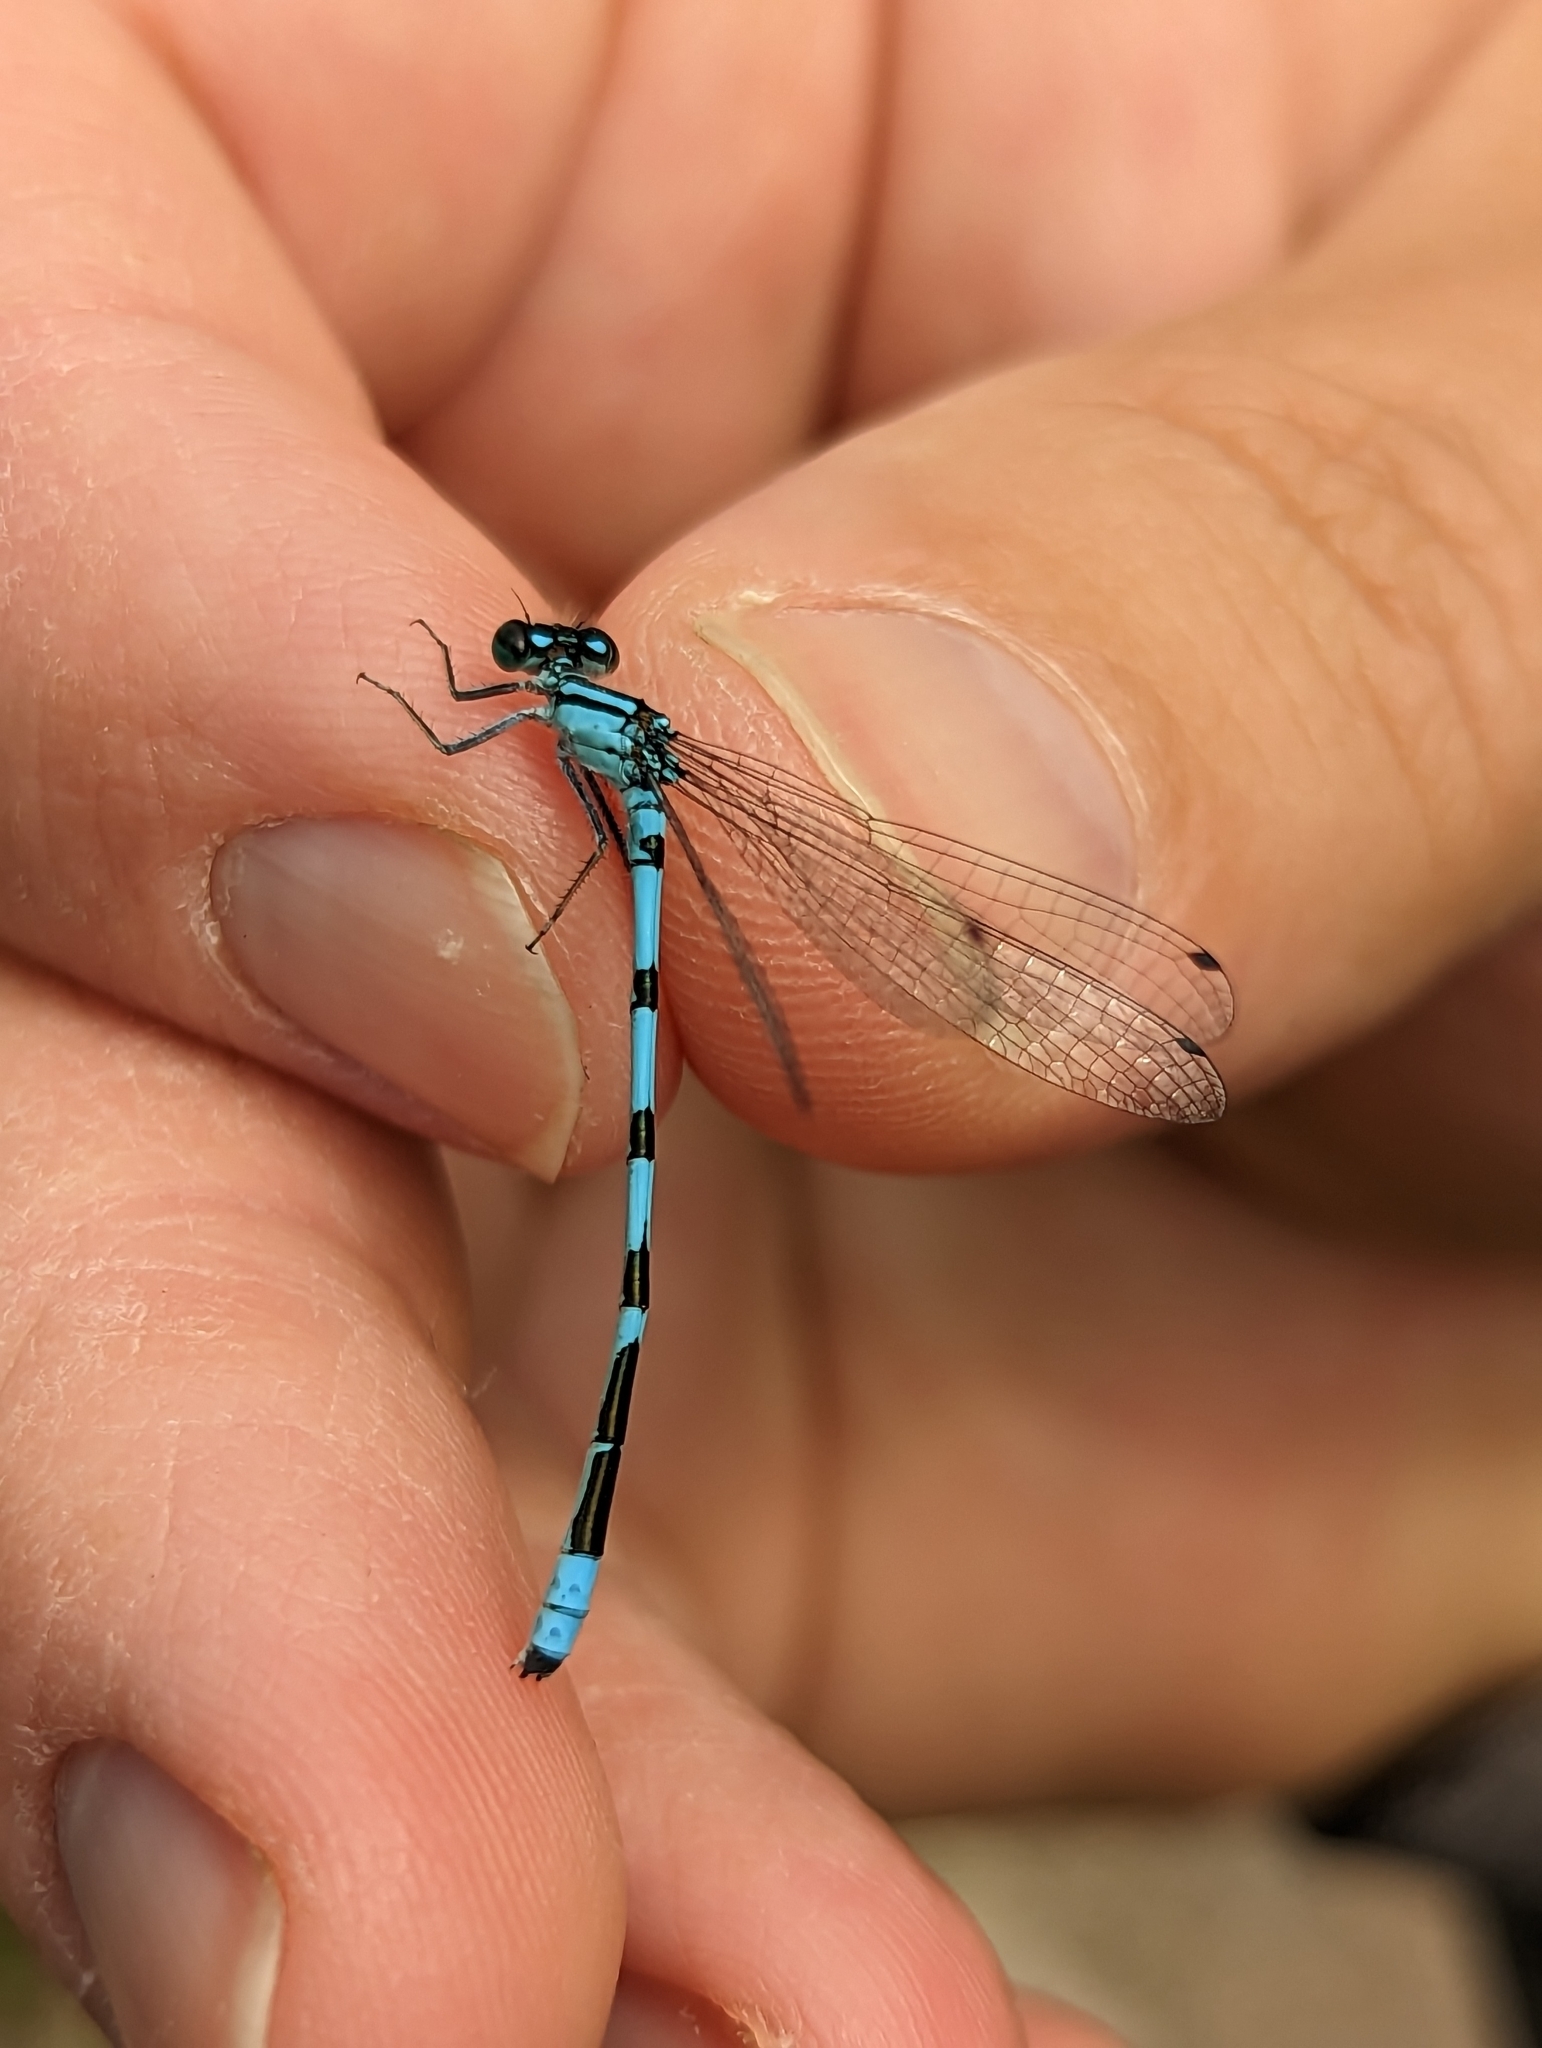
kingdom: Animalia
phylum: Arthropoda
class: Insecta
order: Odonata
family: Coenagrionidae
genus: Enallagma
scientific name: Enallagma hageni
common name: Hagen's bluet
